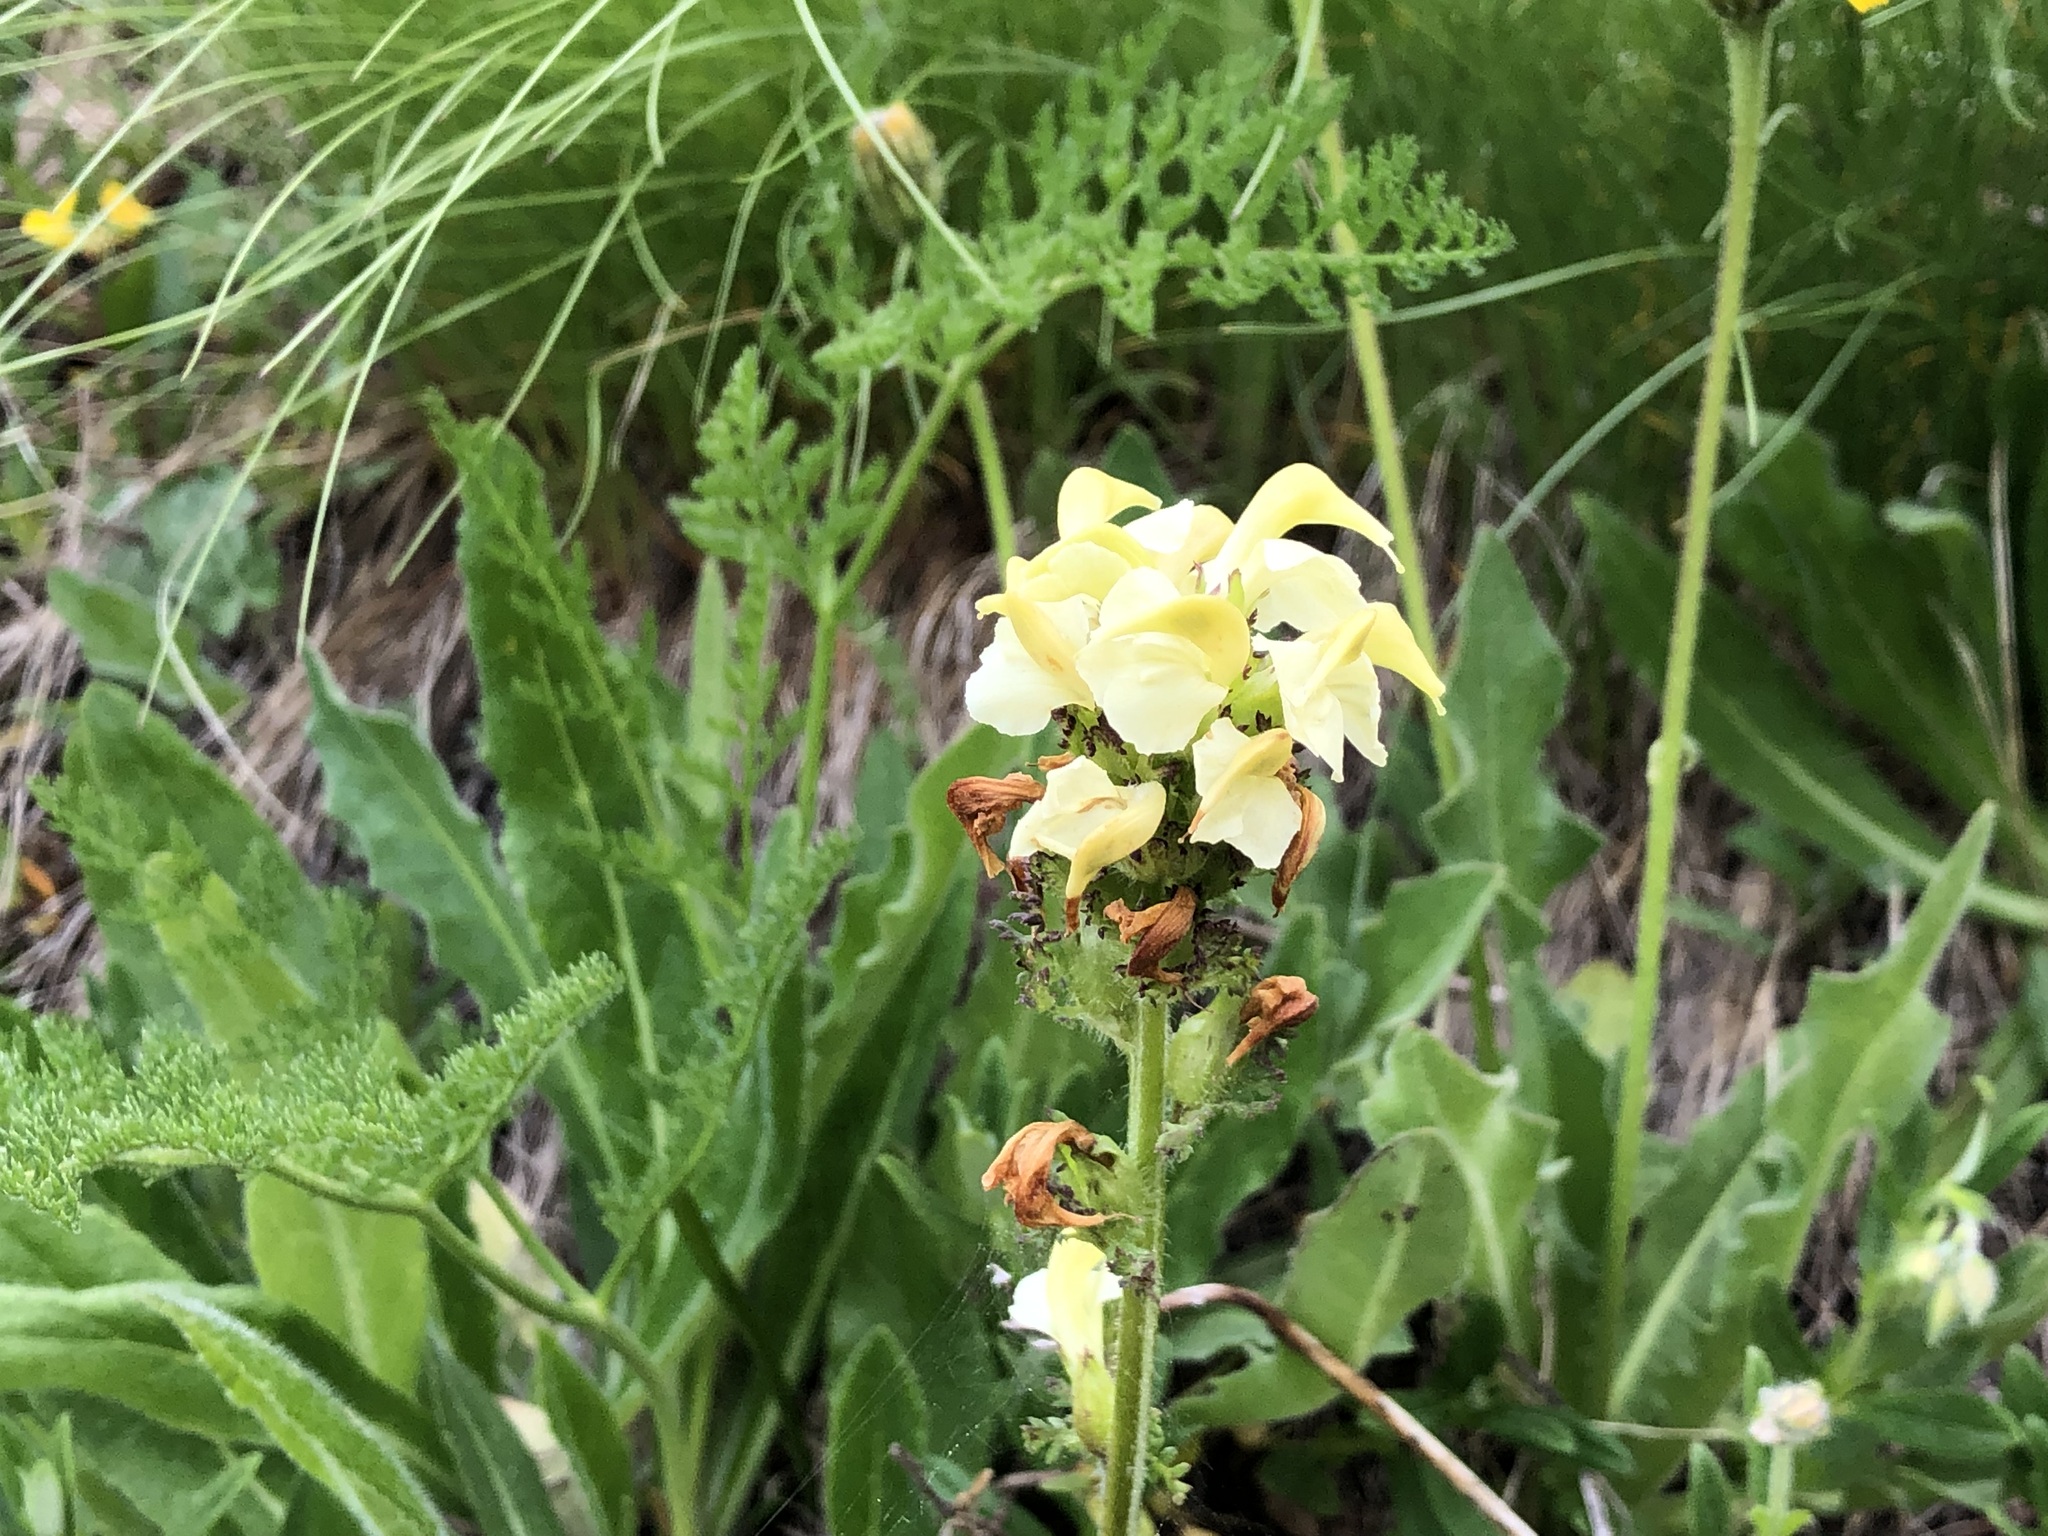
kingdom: Plantae
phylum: Tracheophyta
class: Magnoliopsida
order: Lamiales
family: Orobanchaceae
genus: Pedicularis
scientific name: Pedicularis tuberosa
